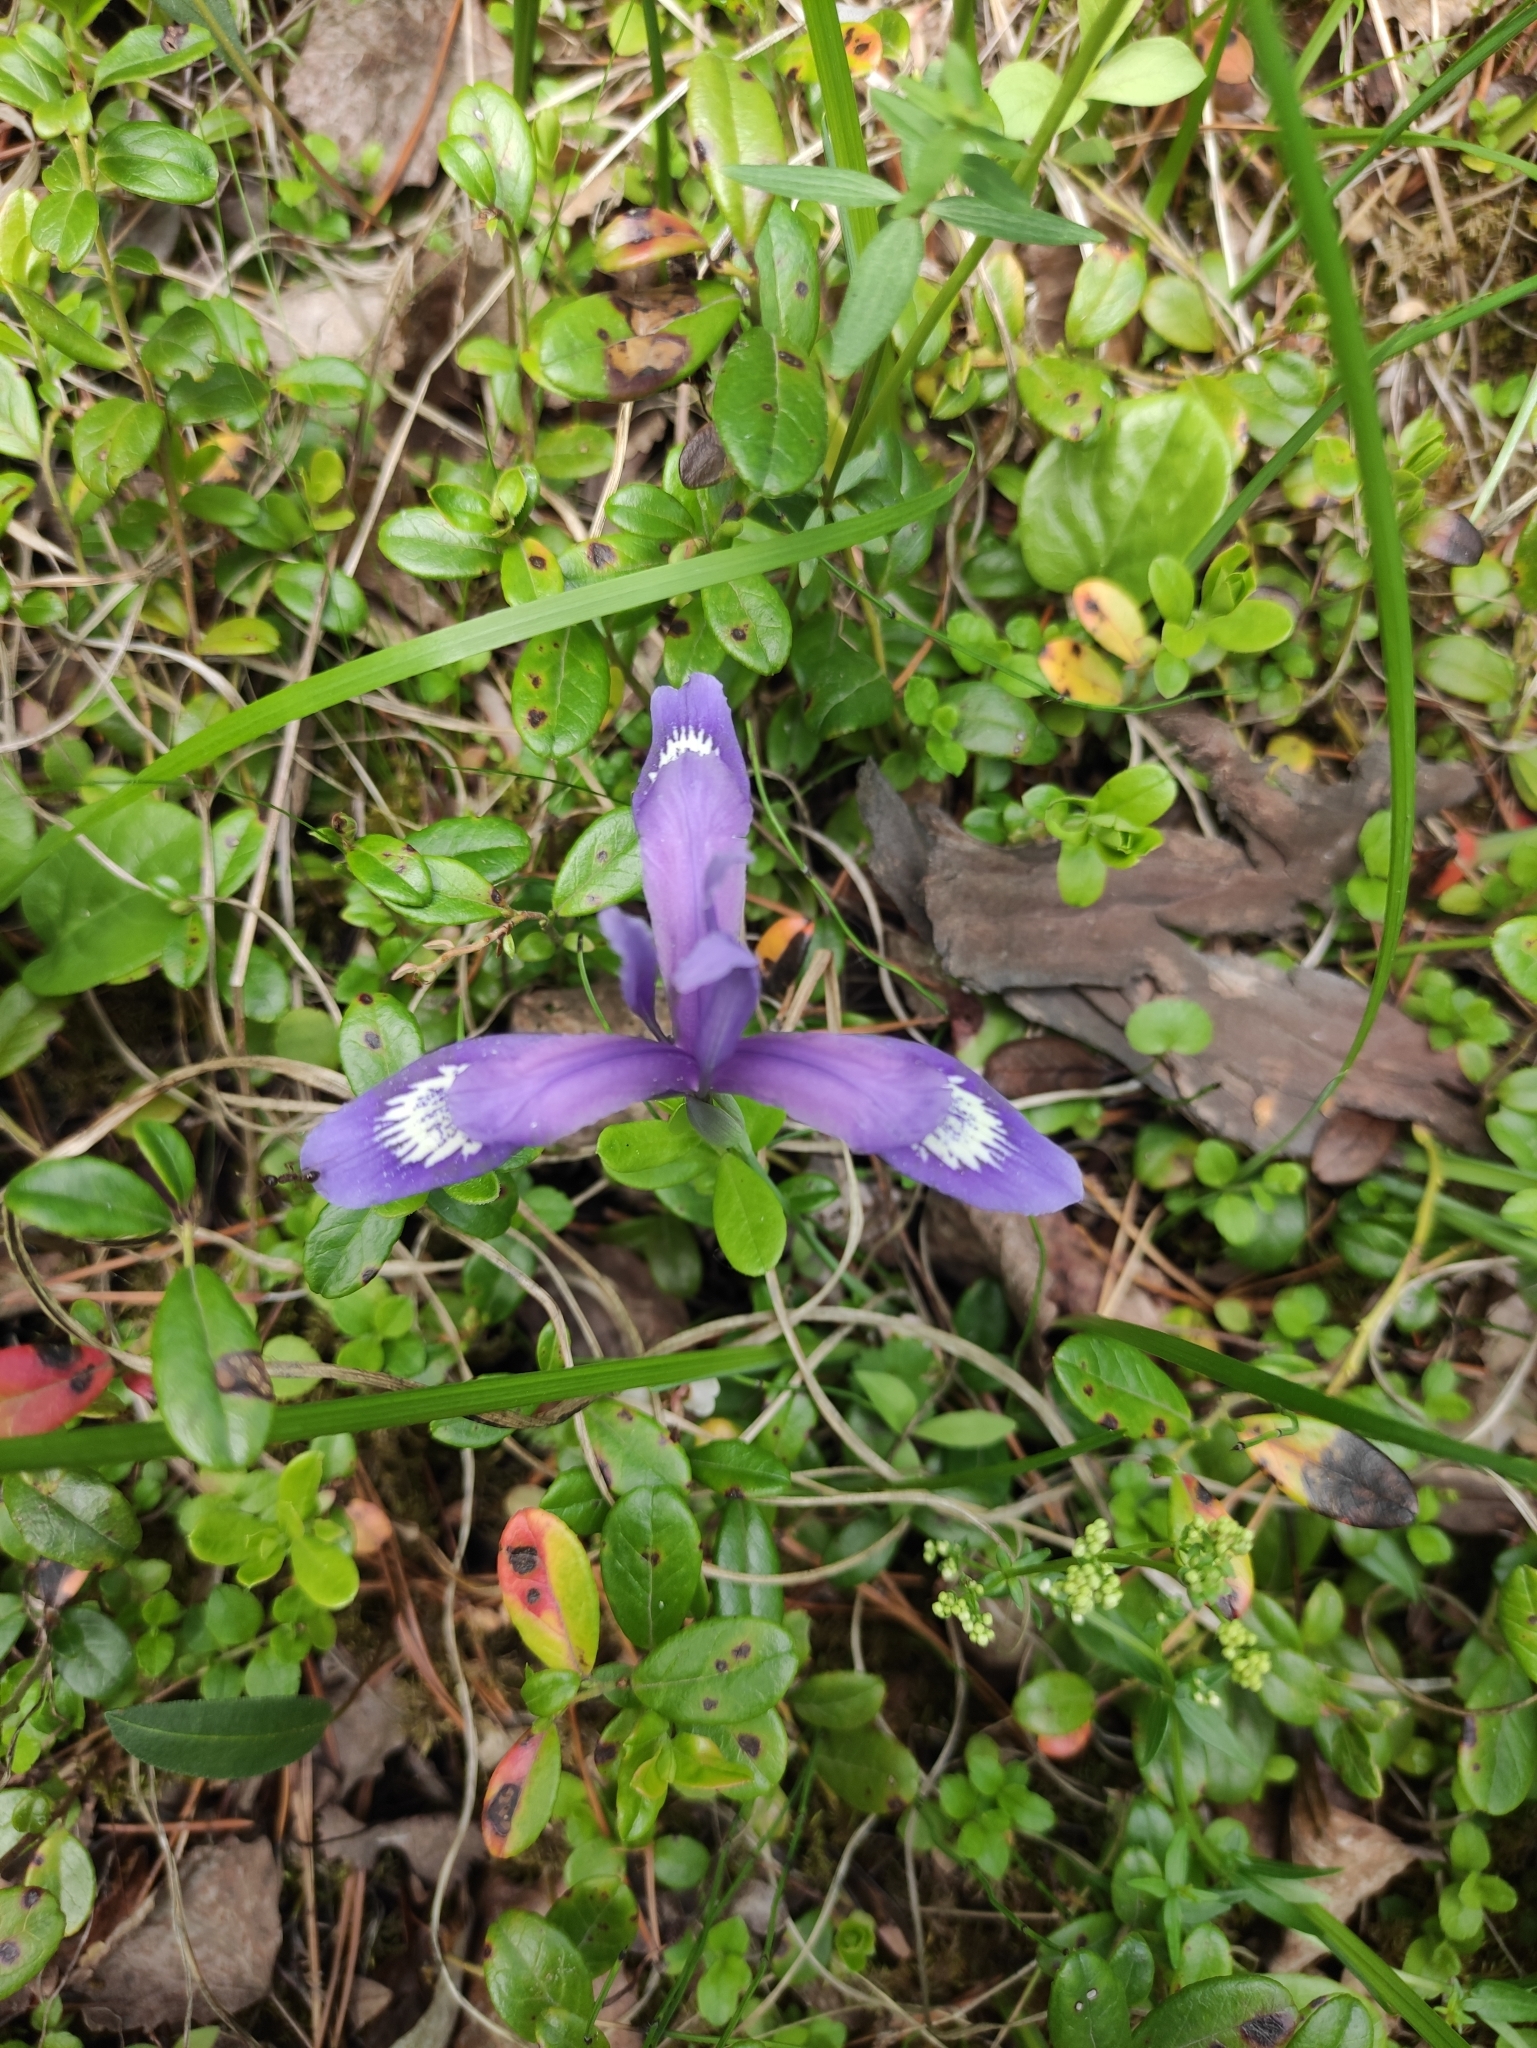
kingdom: Plantae
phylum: Tracheophyta
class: Liliopsida
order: Asparagales
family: Iridaceae
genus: Iris
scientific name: Iris ruthenica
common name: Purple-bract iris
